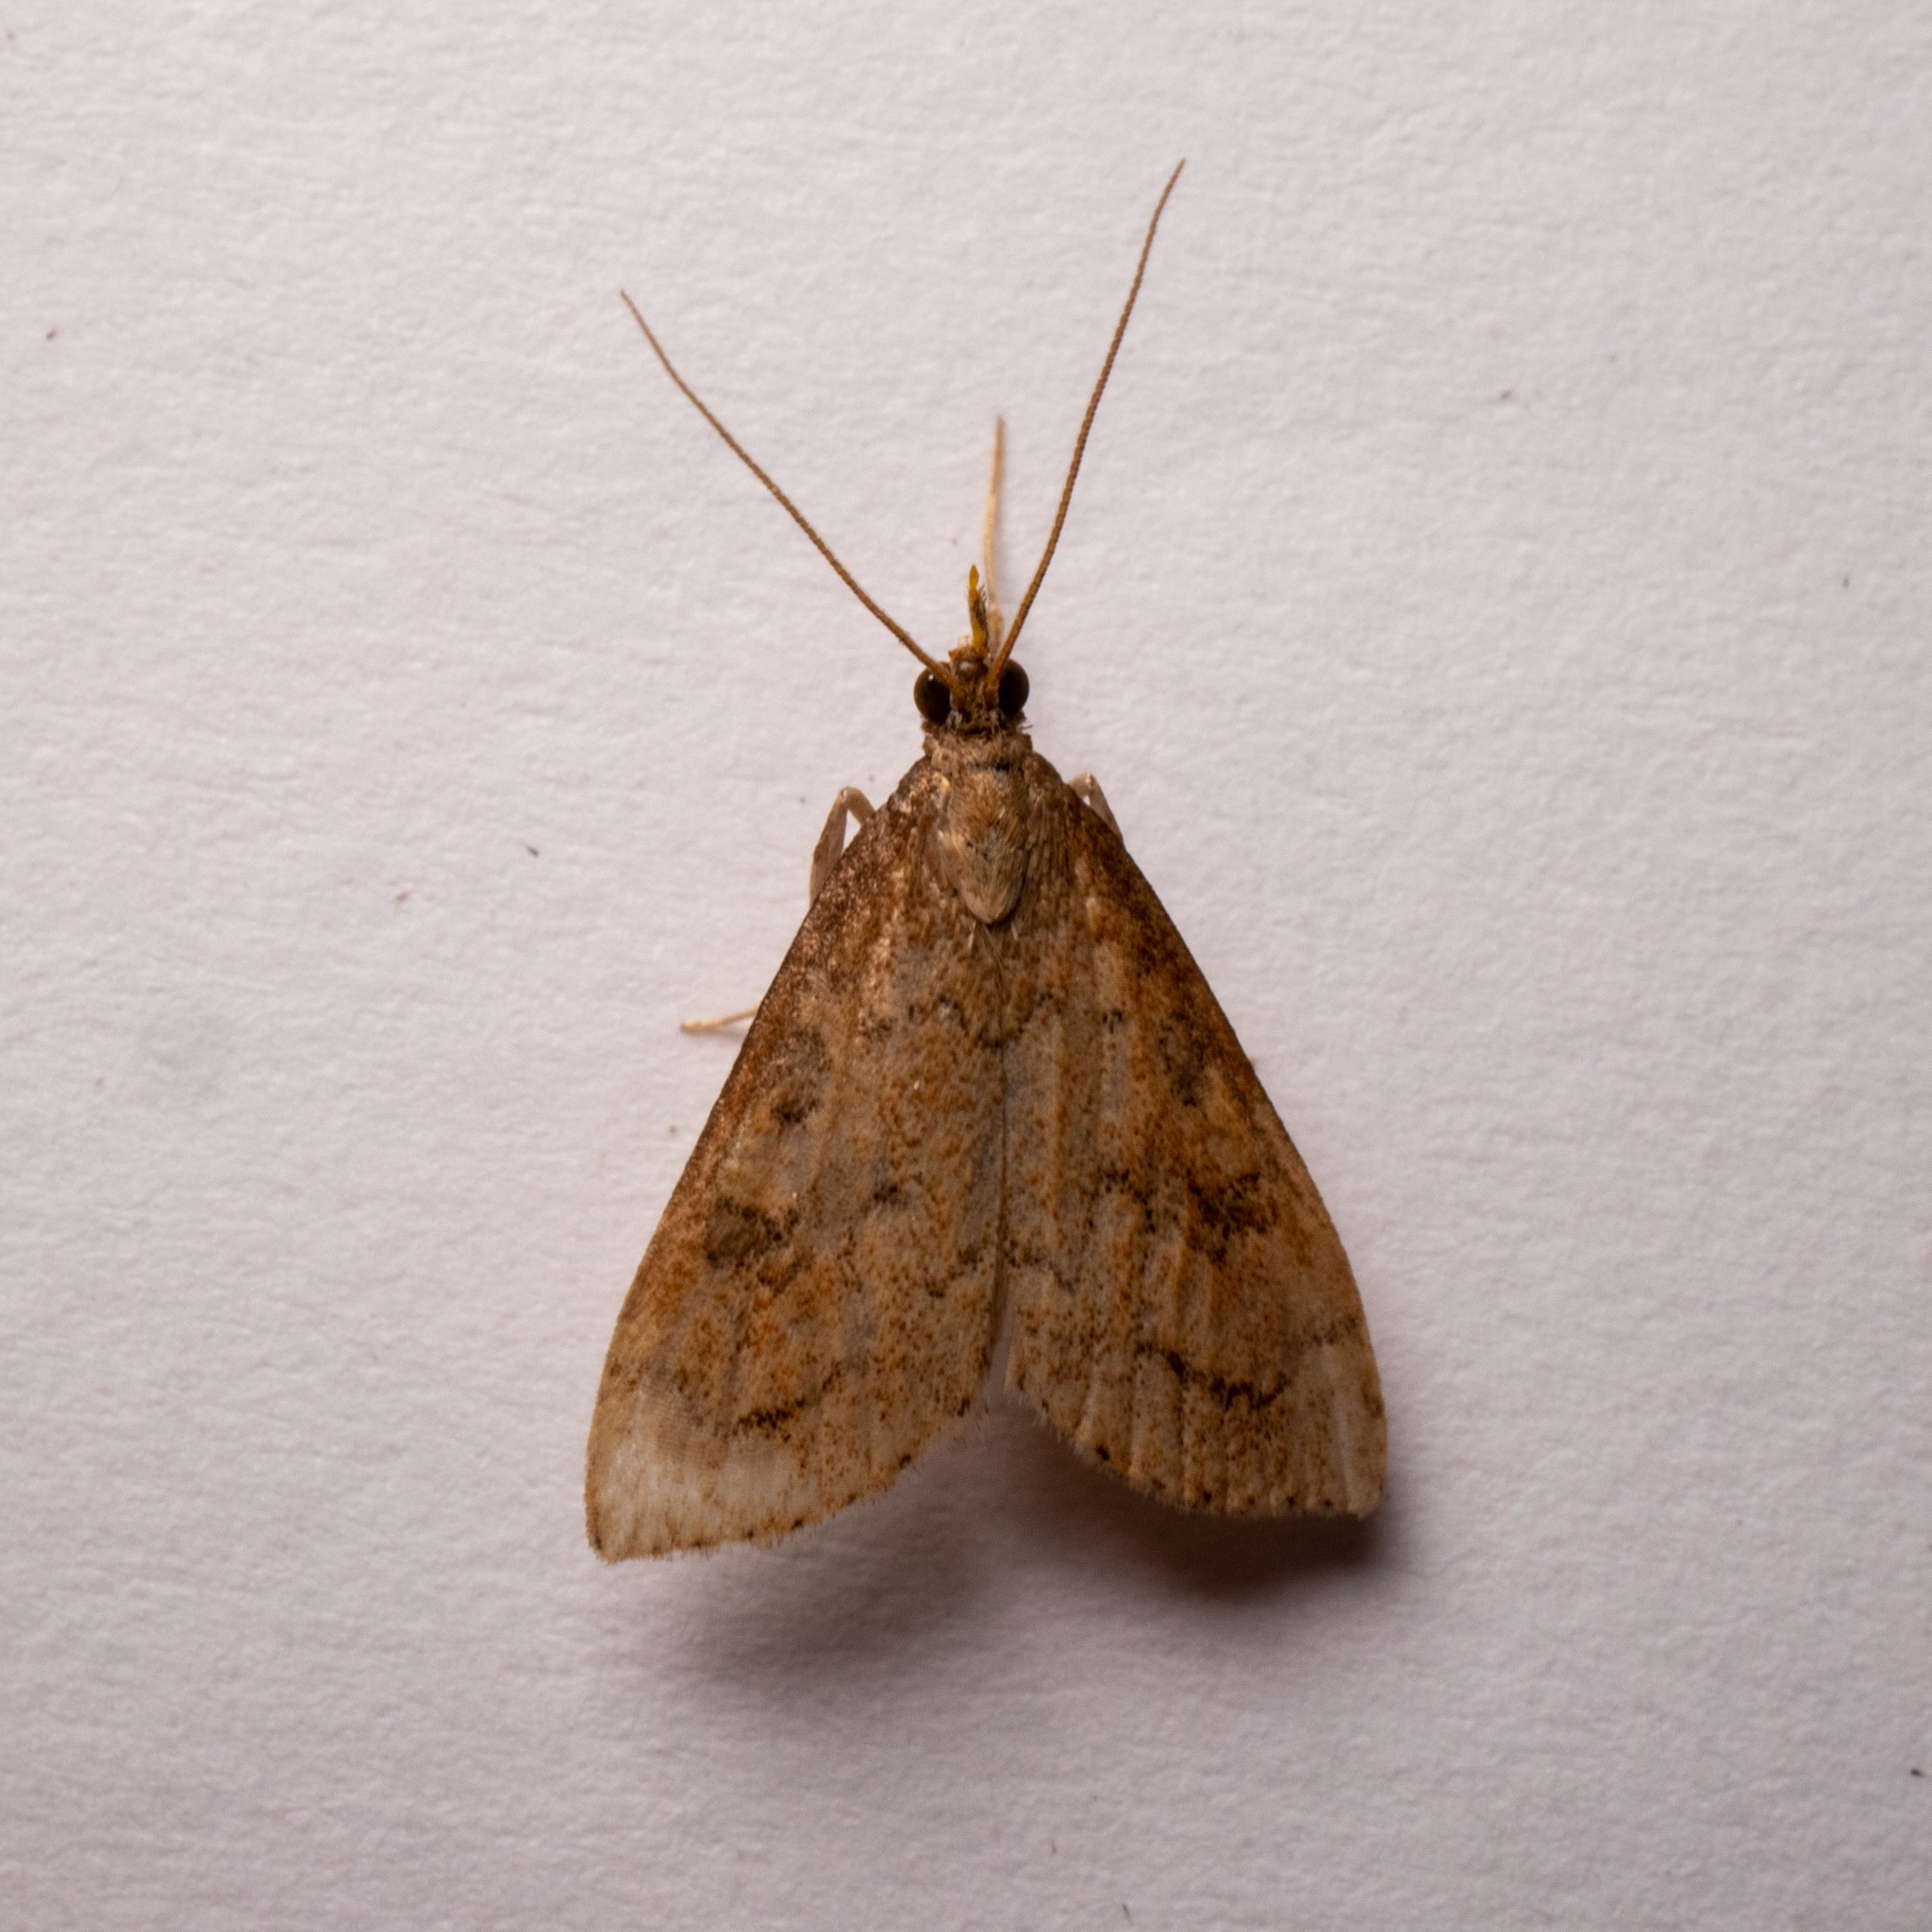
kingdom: Animalia
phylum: Arthropoda
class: Insecta
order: Lepidoptera
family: Crambidae
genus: Udea
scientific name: Udea rubigalis
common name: Celery leaftier moth
